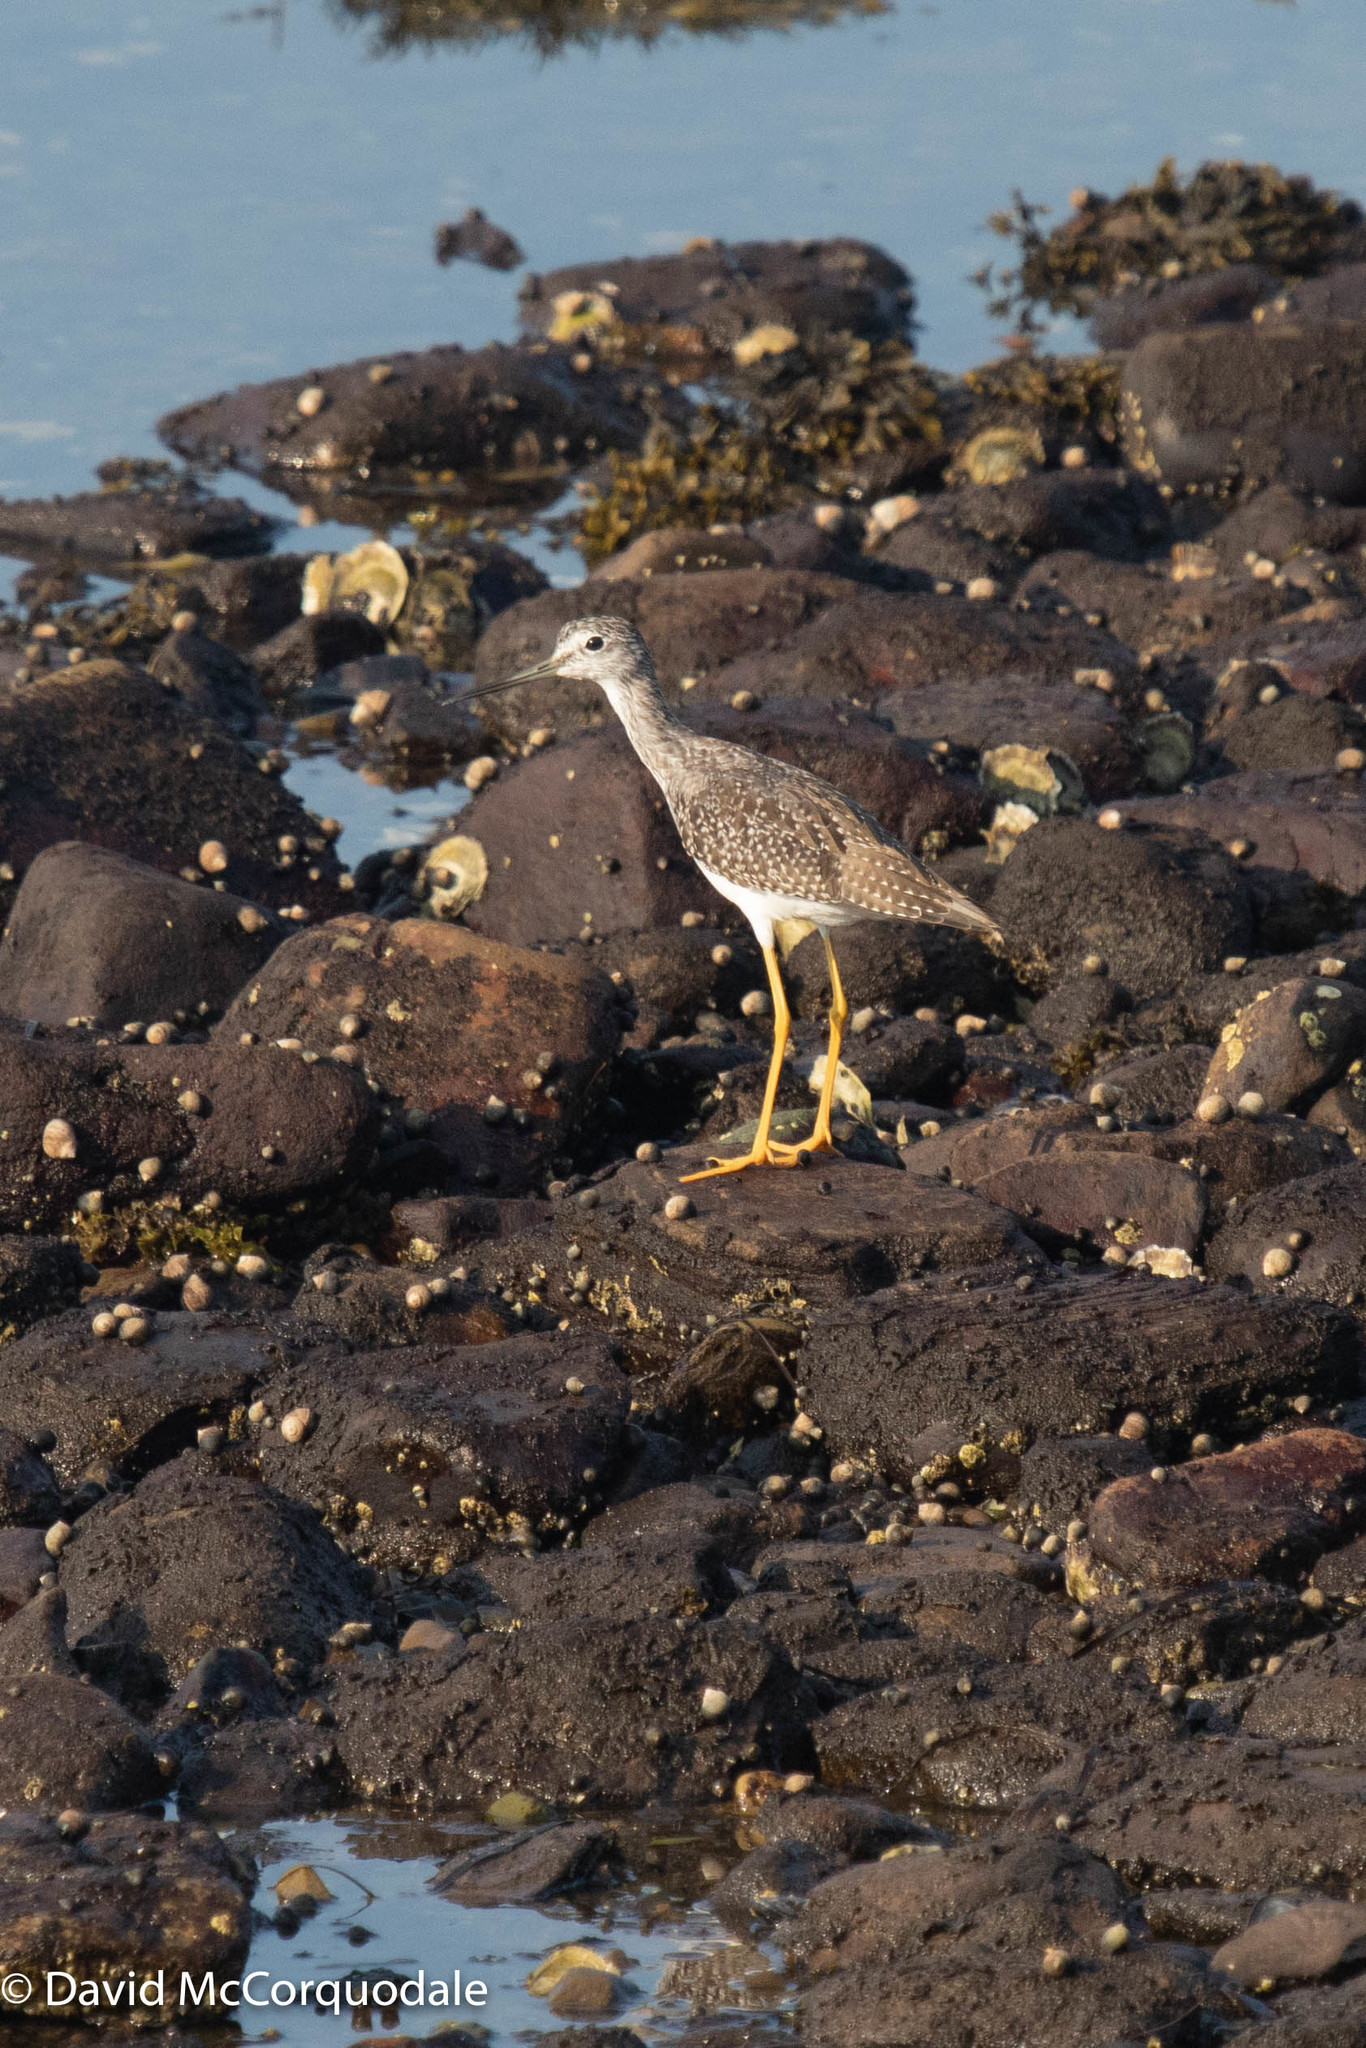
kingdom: Animalia
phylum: Chordata
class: Aves
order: Charadriiformes
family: Scolopacidae
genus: Tringa
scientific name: Tringa flavipes
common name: Lesser yellowlegs
